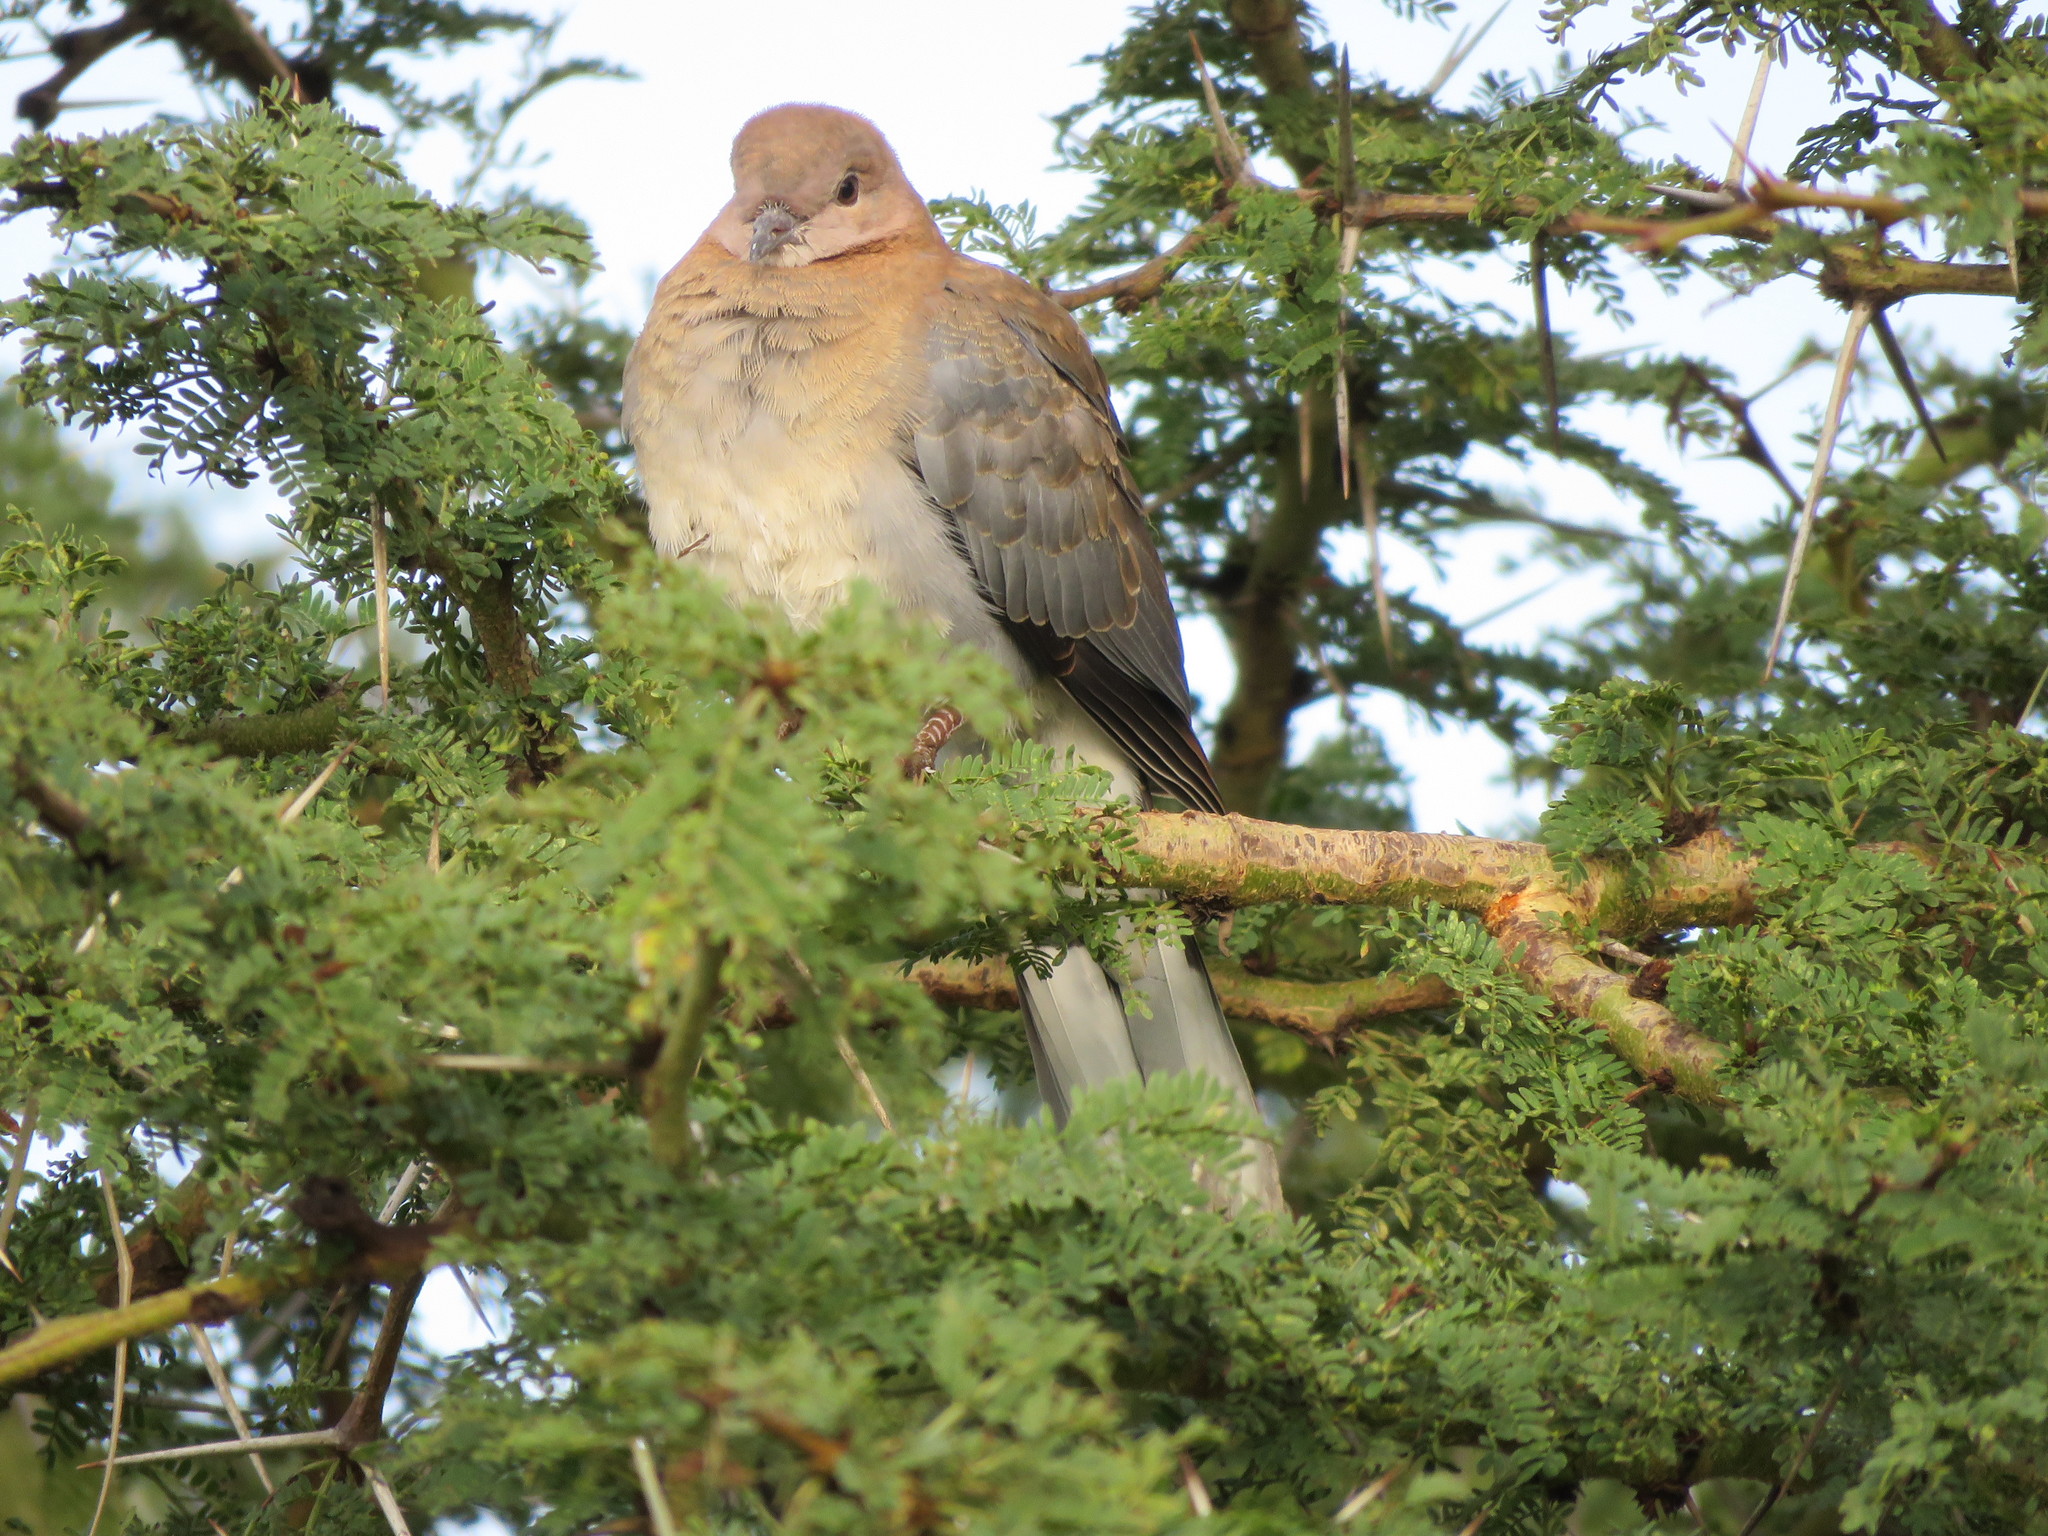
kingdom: Animalia
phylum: Chordata
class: Aves
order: Columbiformes
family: Columbidae
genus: Streptopelia
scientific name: Streptopelia capicola
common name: Ring-necked dove
